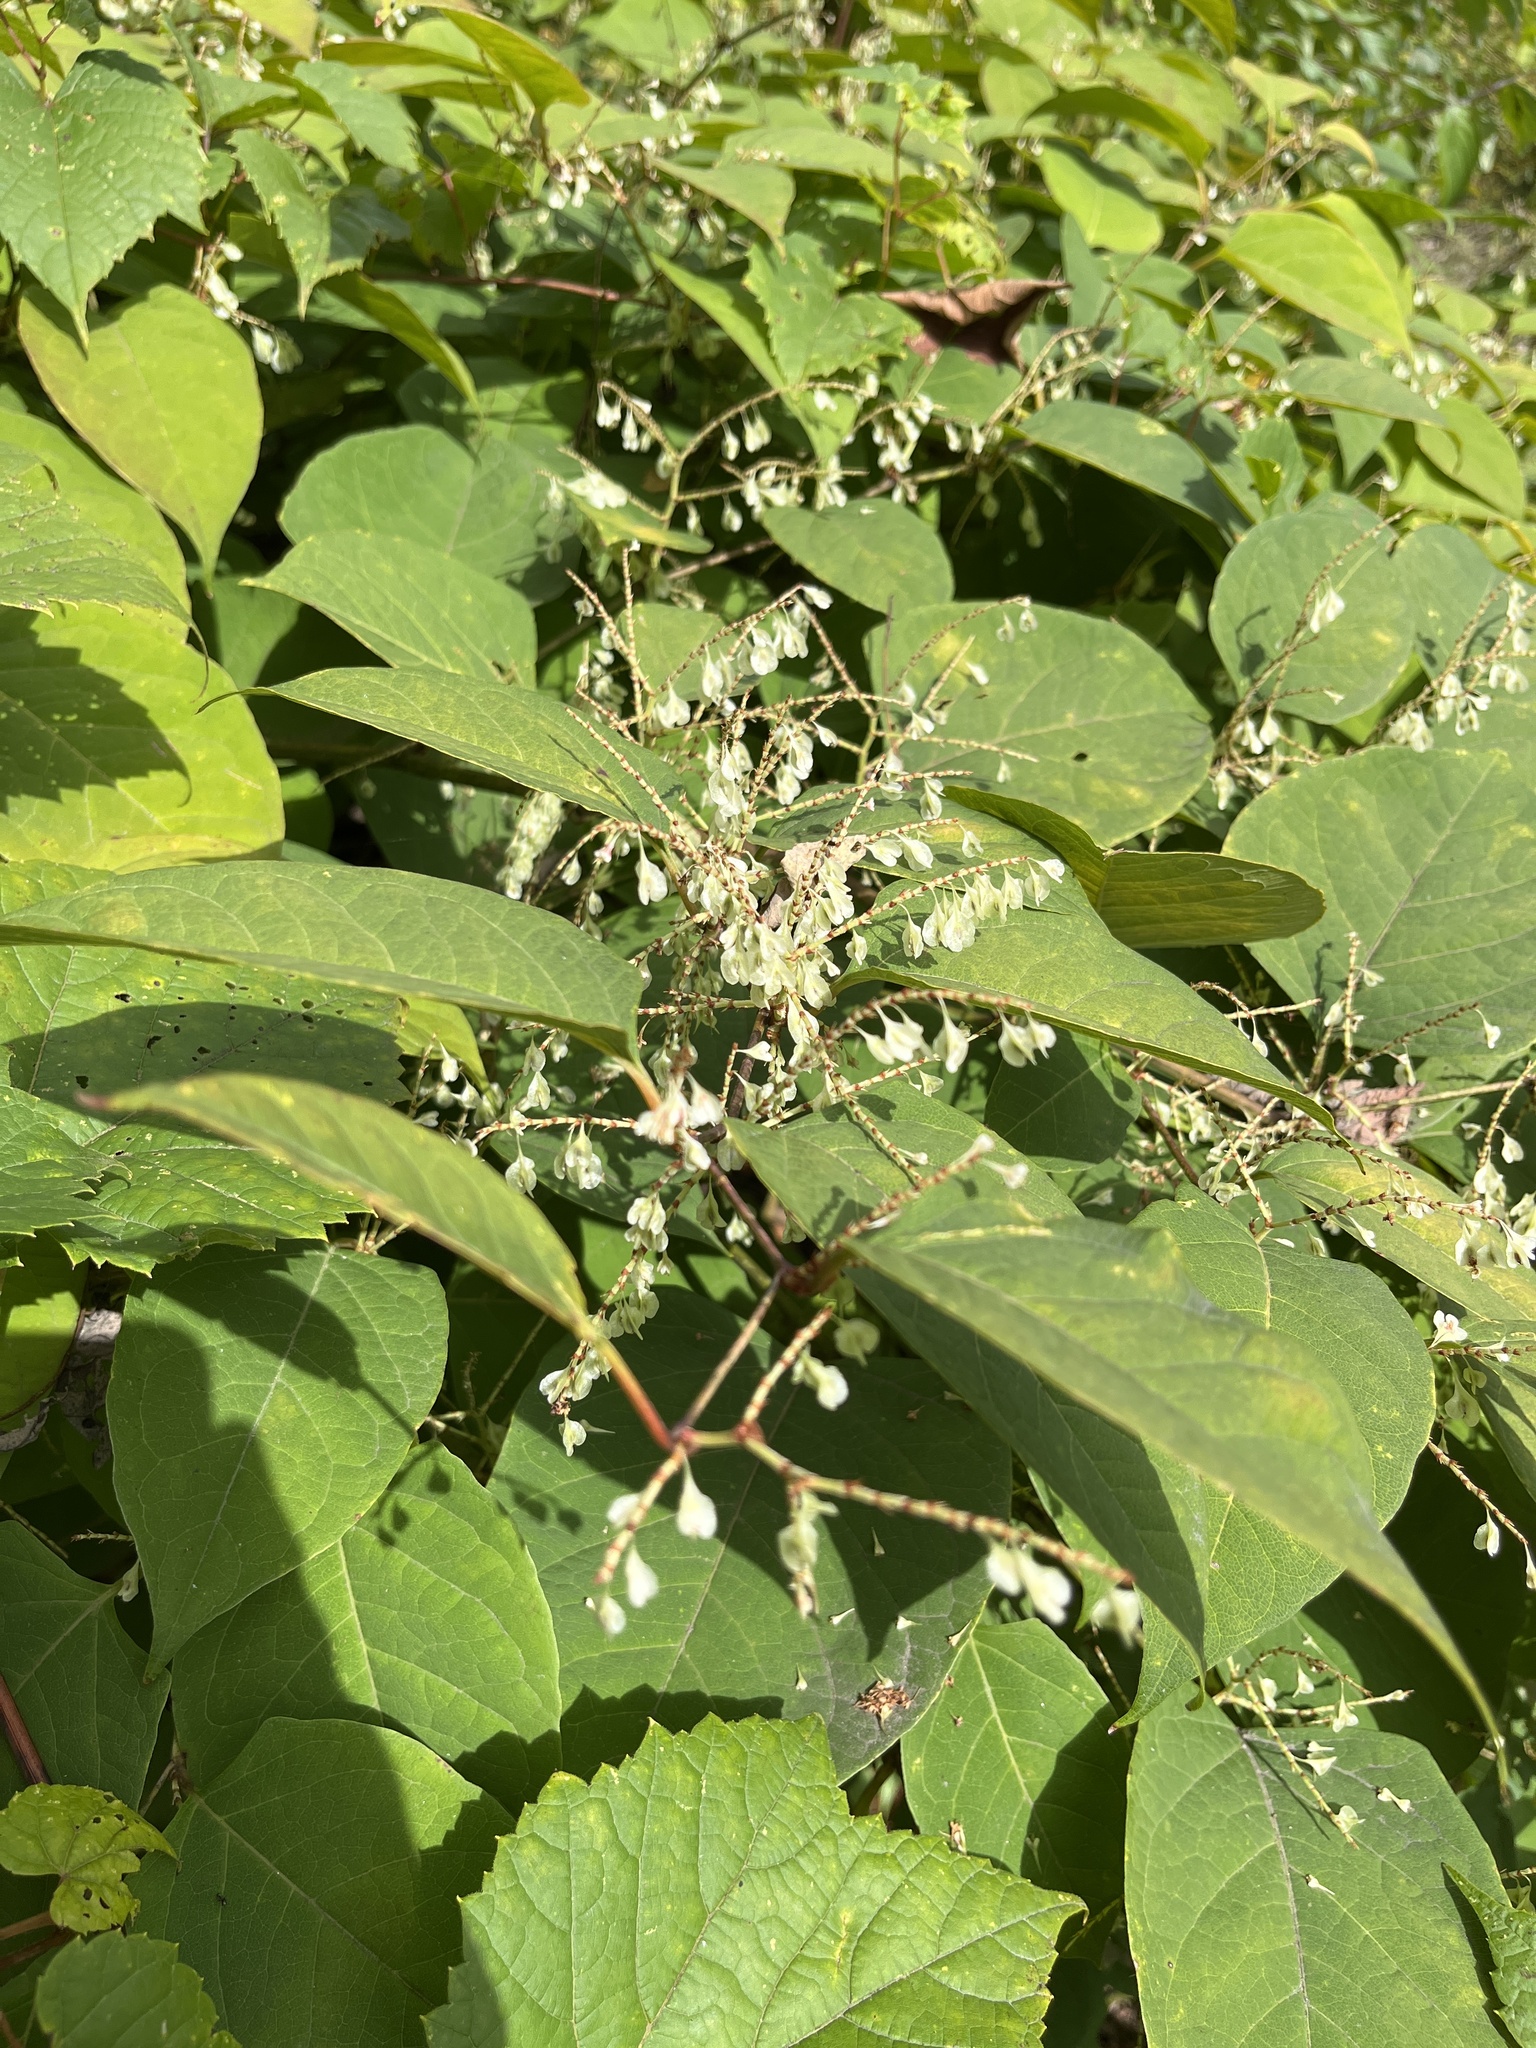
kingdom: Plantae
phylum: Tracheophyta
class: Magnoliopsida
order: Caryophyllales
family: Polygonaceae
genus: Reynoutria
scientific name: Reynoutria japonica
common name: Japanese knotweed
